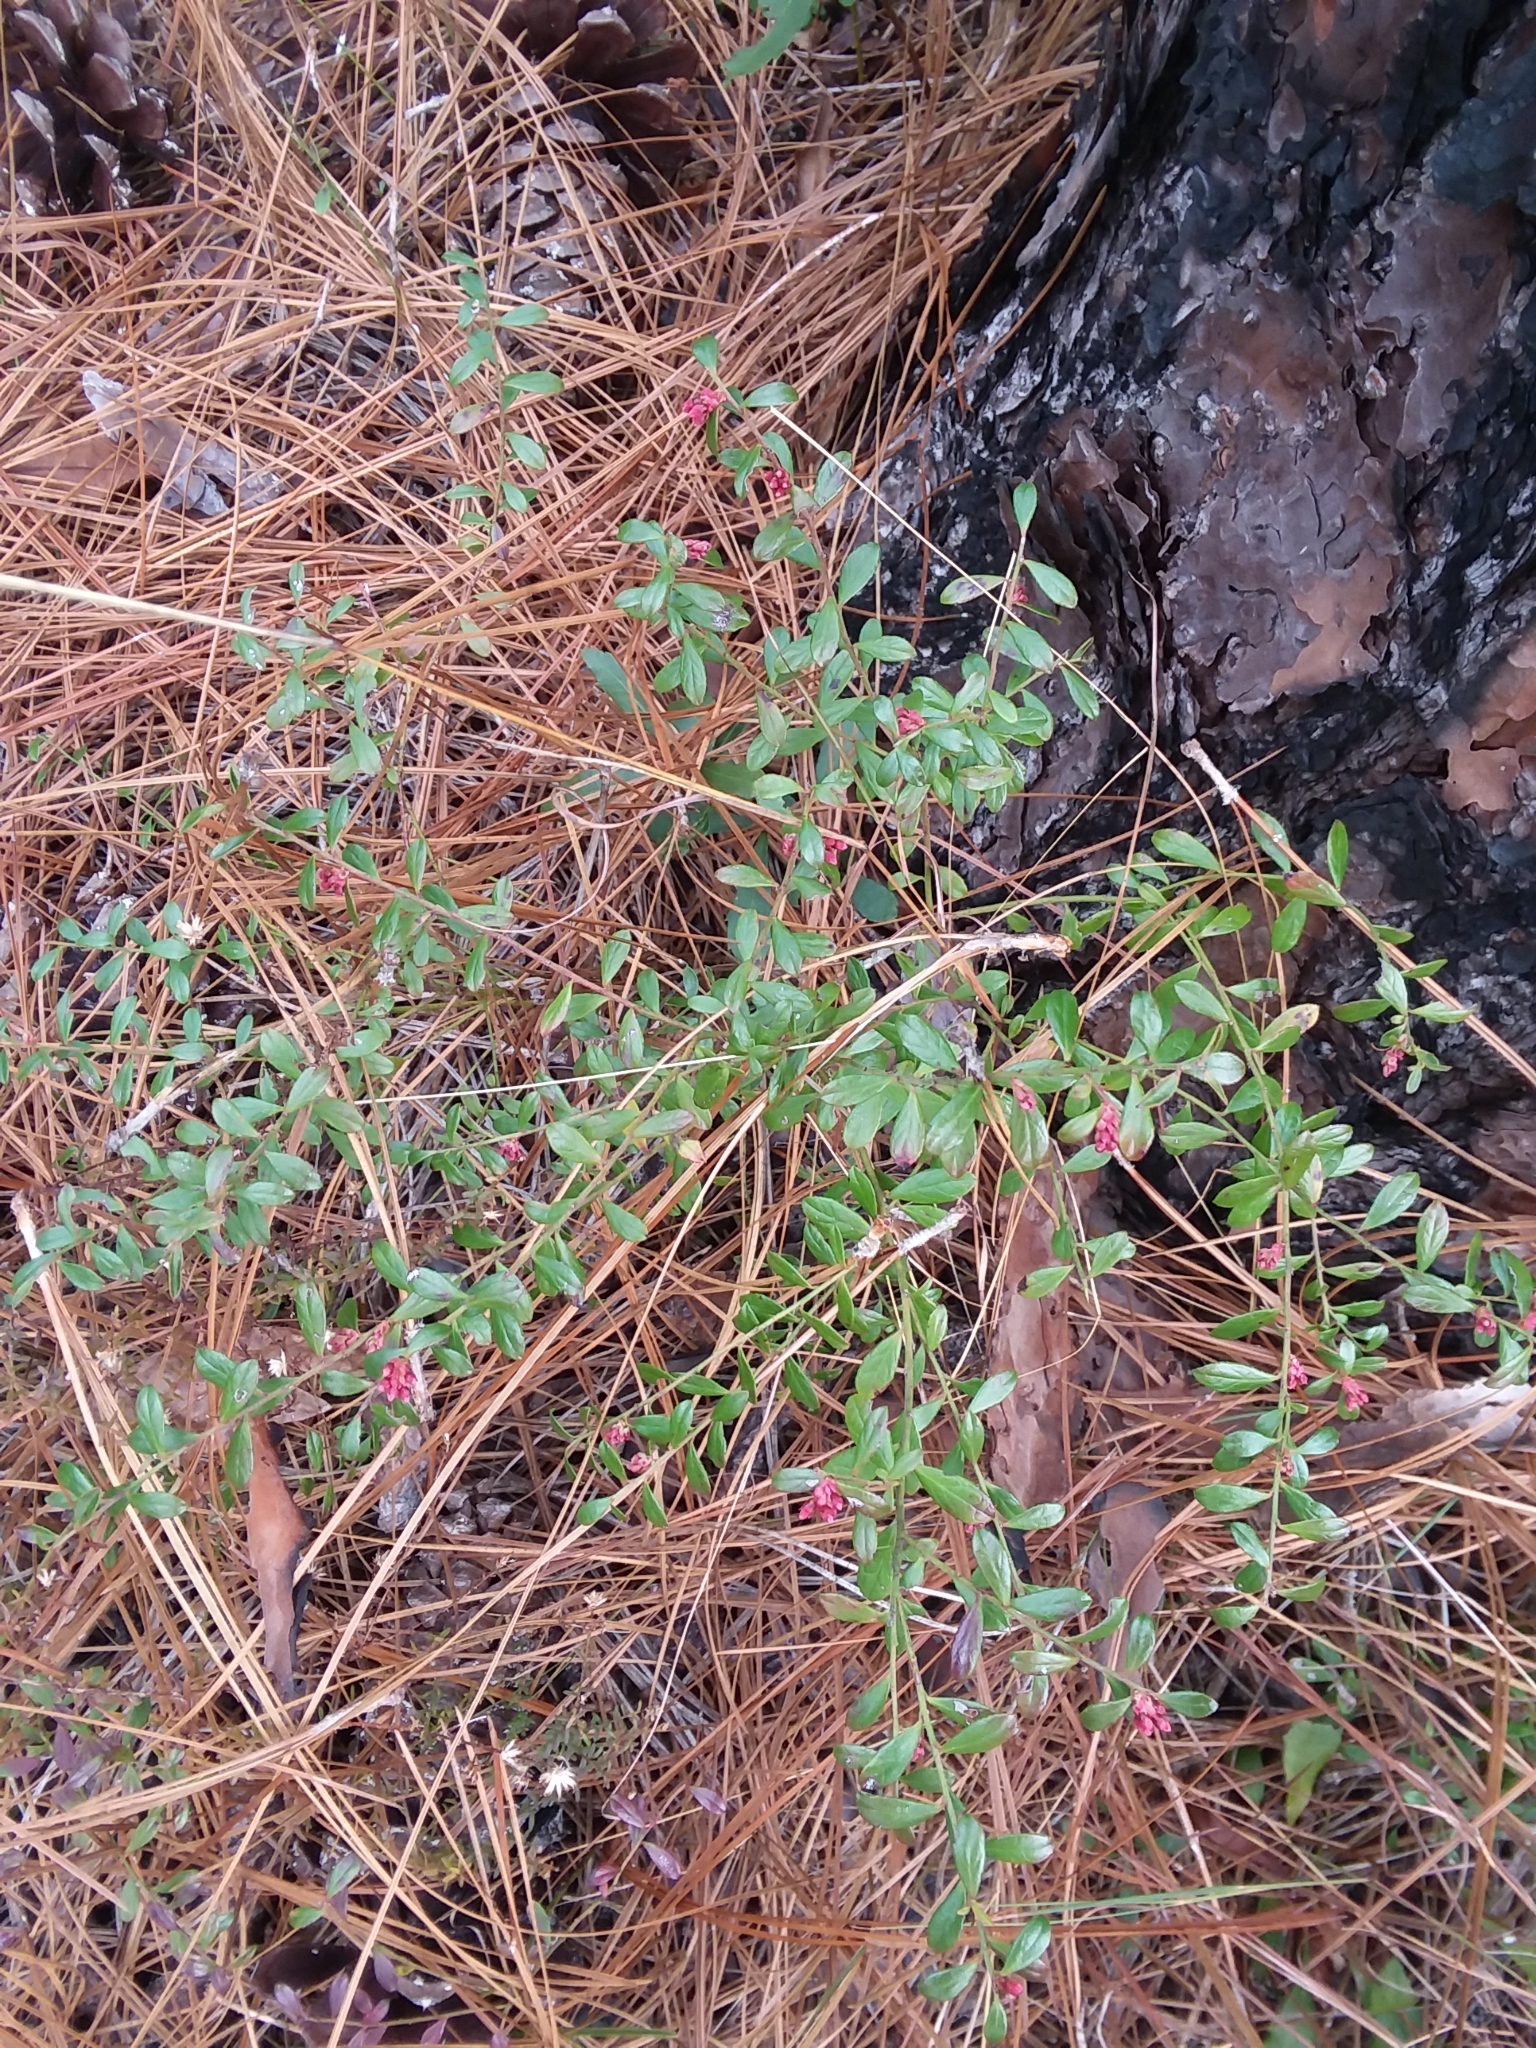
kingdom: Plantae
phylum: Tracheophyta
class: Magnoliopsida
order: Ericales
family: Ericaceae
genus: Vaccinium
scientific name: Vaccinium myrsinites
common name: Evergreen blueberry
